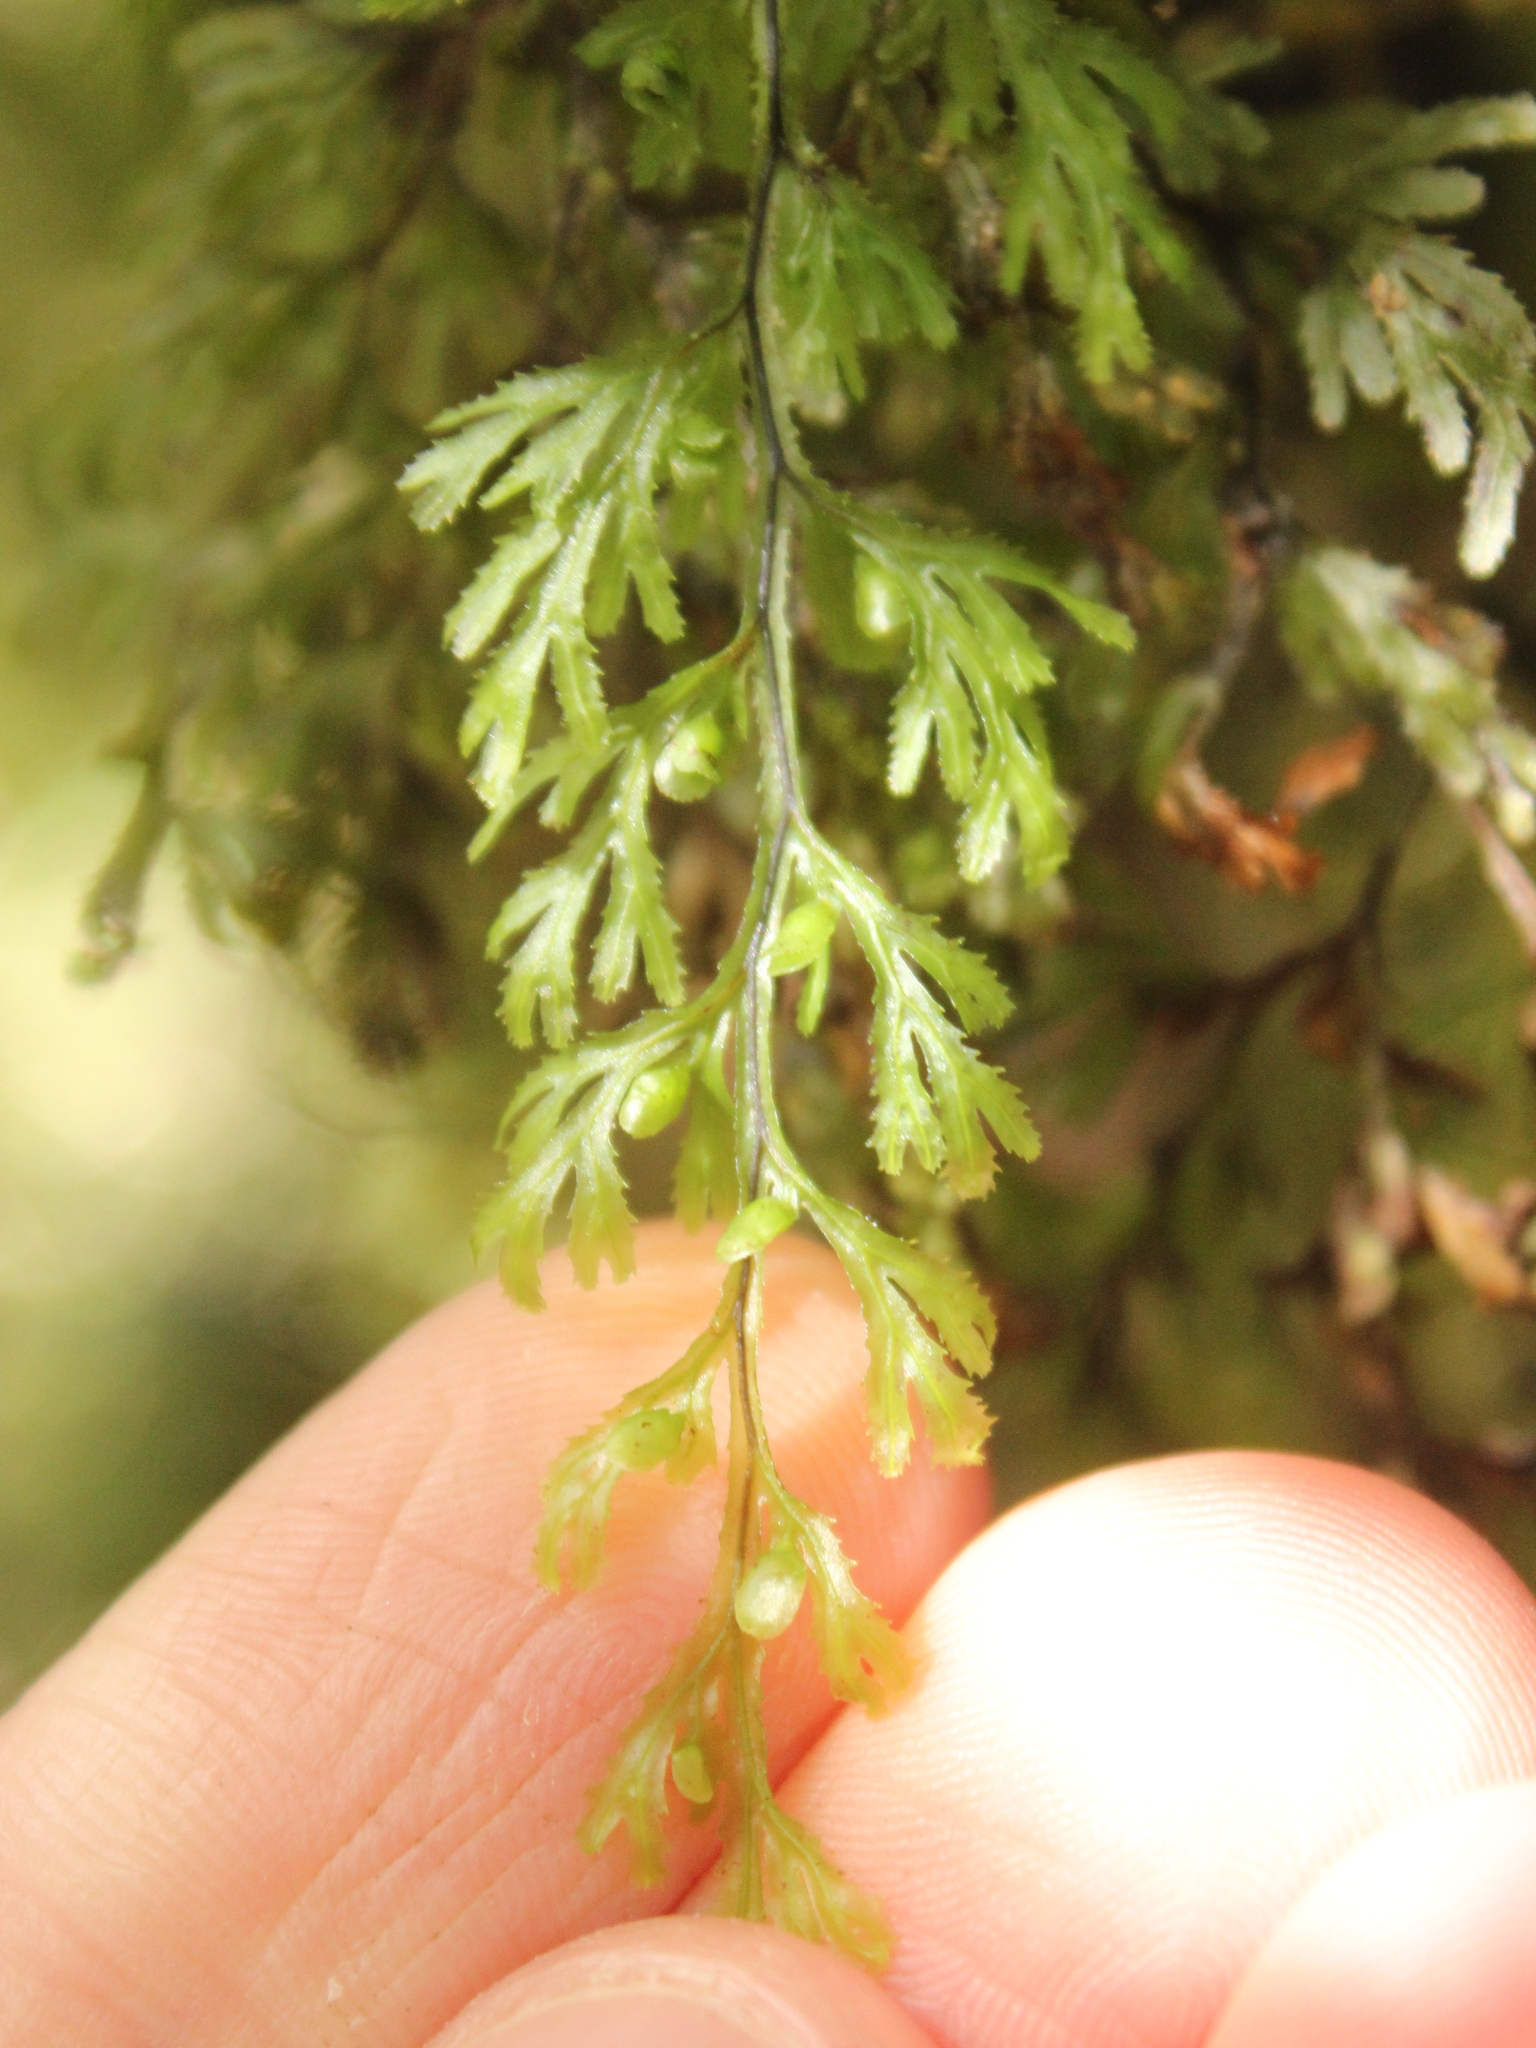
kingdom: Plantae
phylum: Tracheophyta
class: Polypodiopsida
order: Hymenophyllales
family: Hymenophyllaceae
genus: Hymenophyllum
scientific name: Hymenophyllum multifidum
